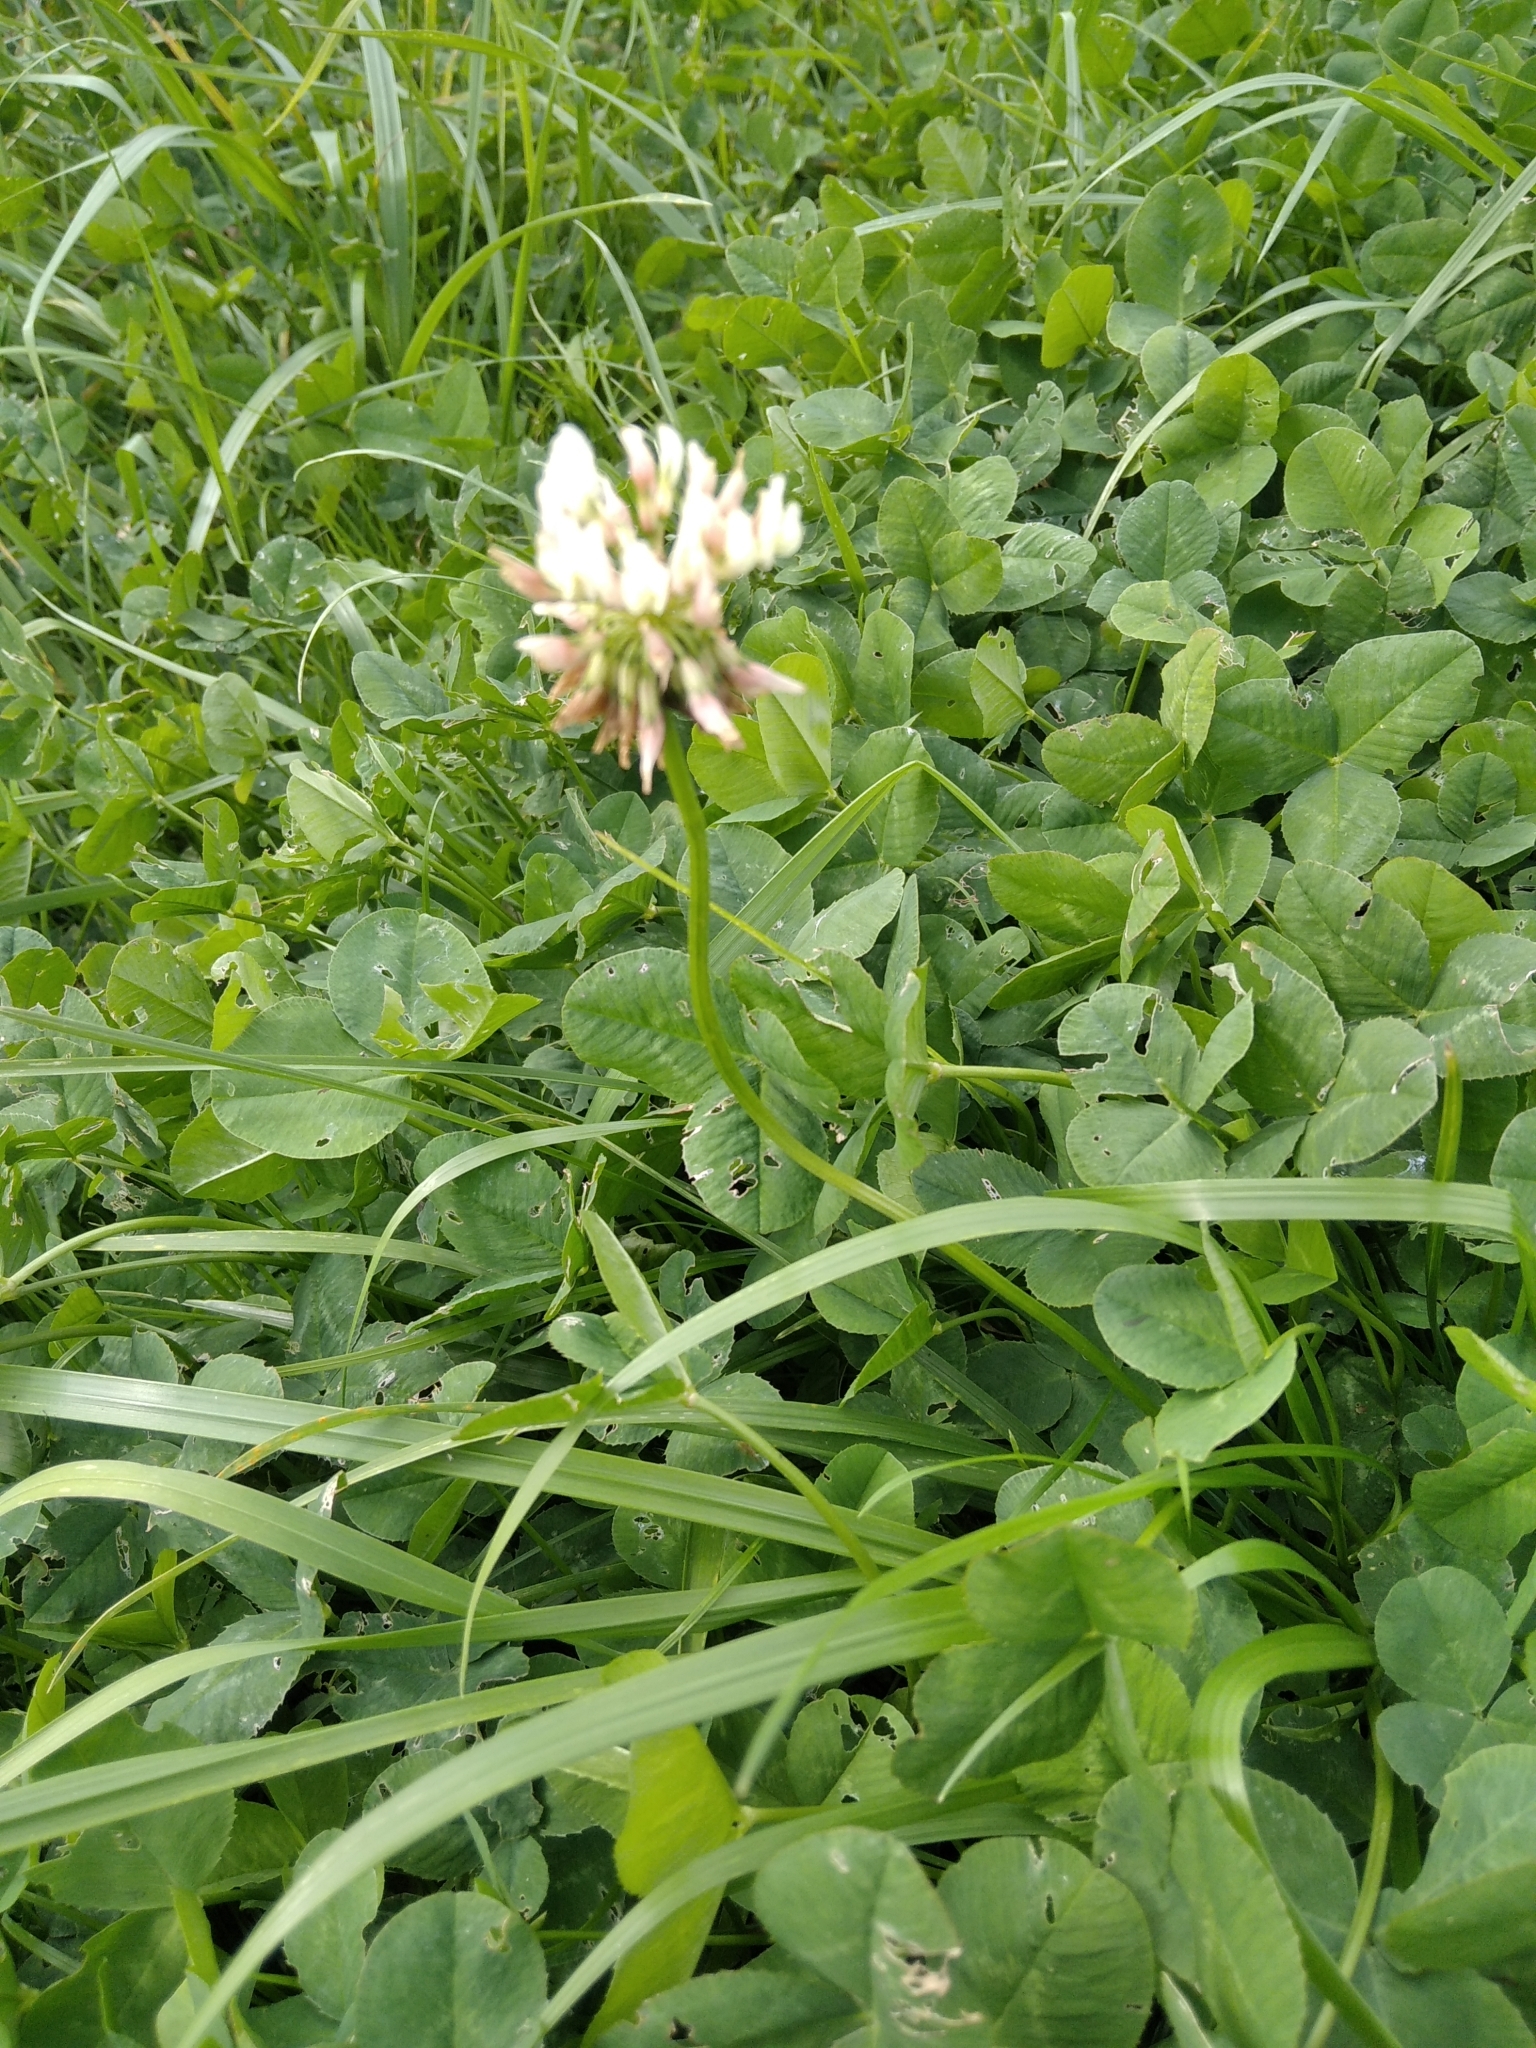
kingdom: Plantae
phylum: Tracheophyta
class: Magnoliopsida
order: Fabales
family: Fabaceae
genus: Trifolium
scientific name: Trifolium repens
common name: White clover
